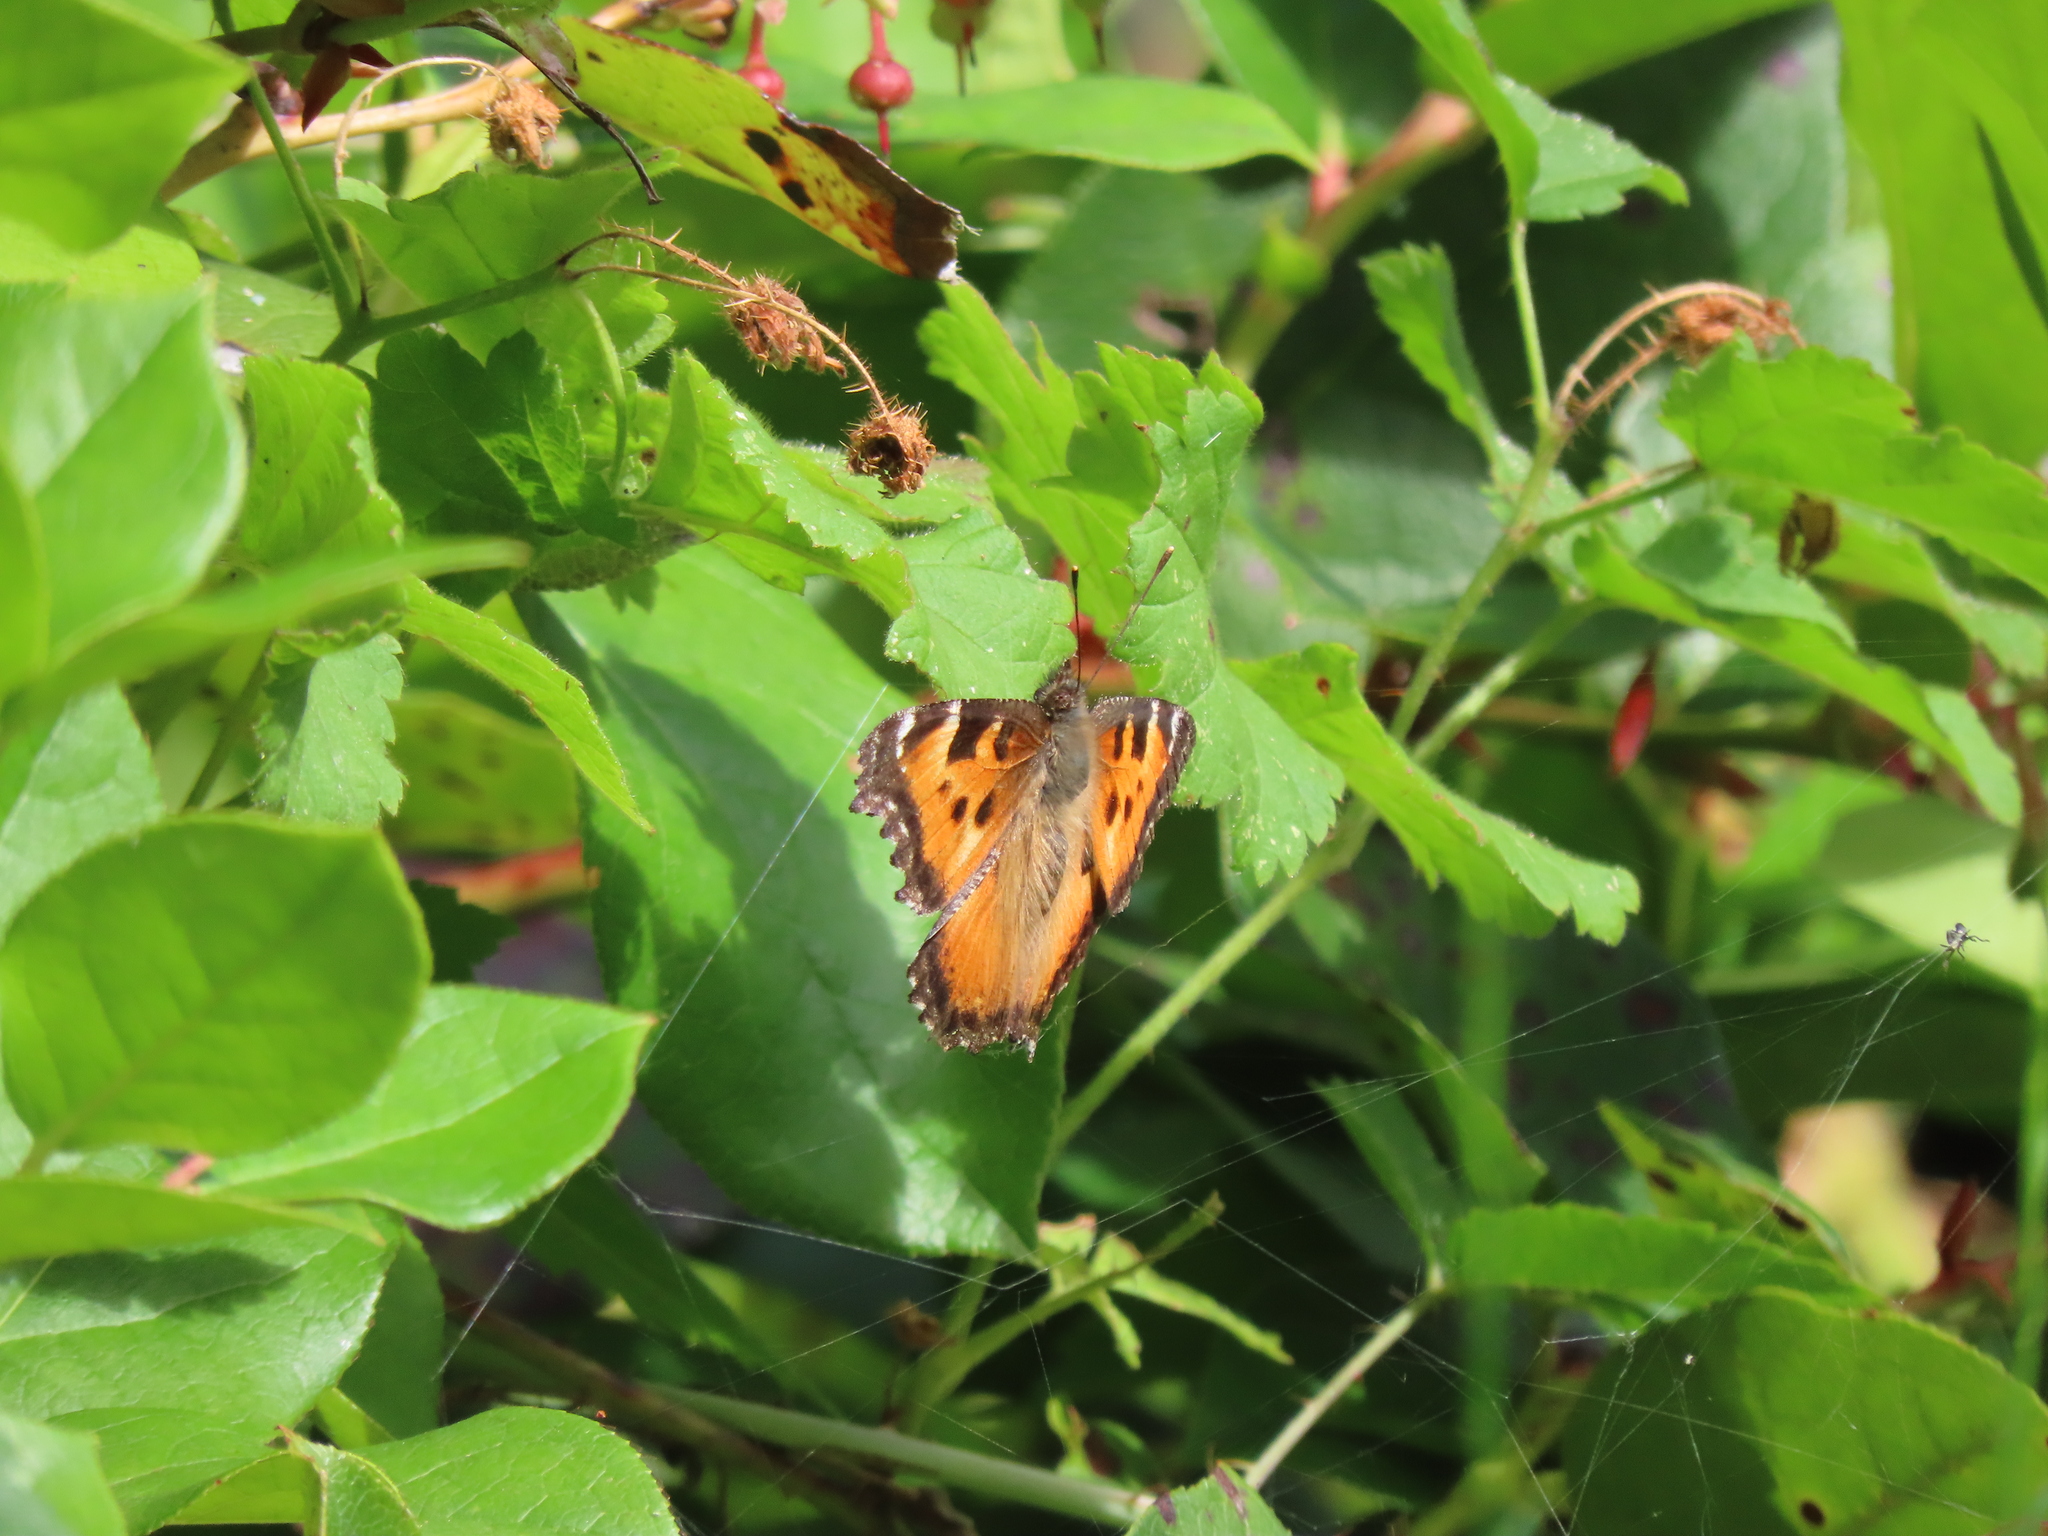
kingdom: Animalia
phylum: Arthropoda
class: Insecta
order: Lepidoptera
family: Nymphalidae
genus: Nymphalis
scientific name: Nymphalis californica
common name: California tortoiseshell
